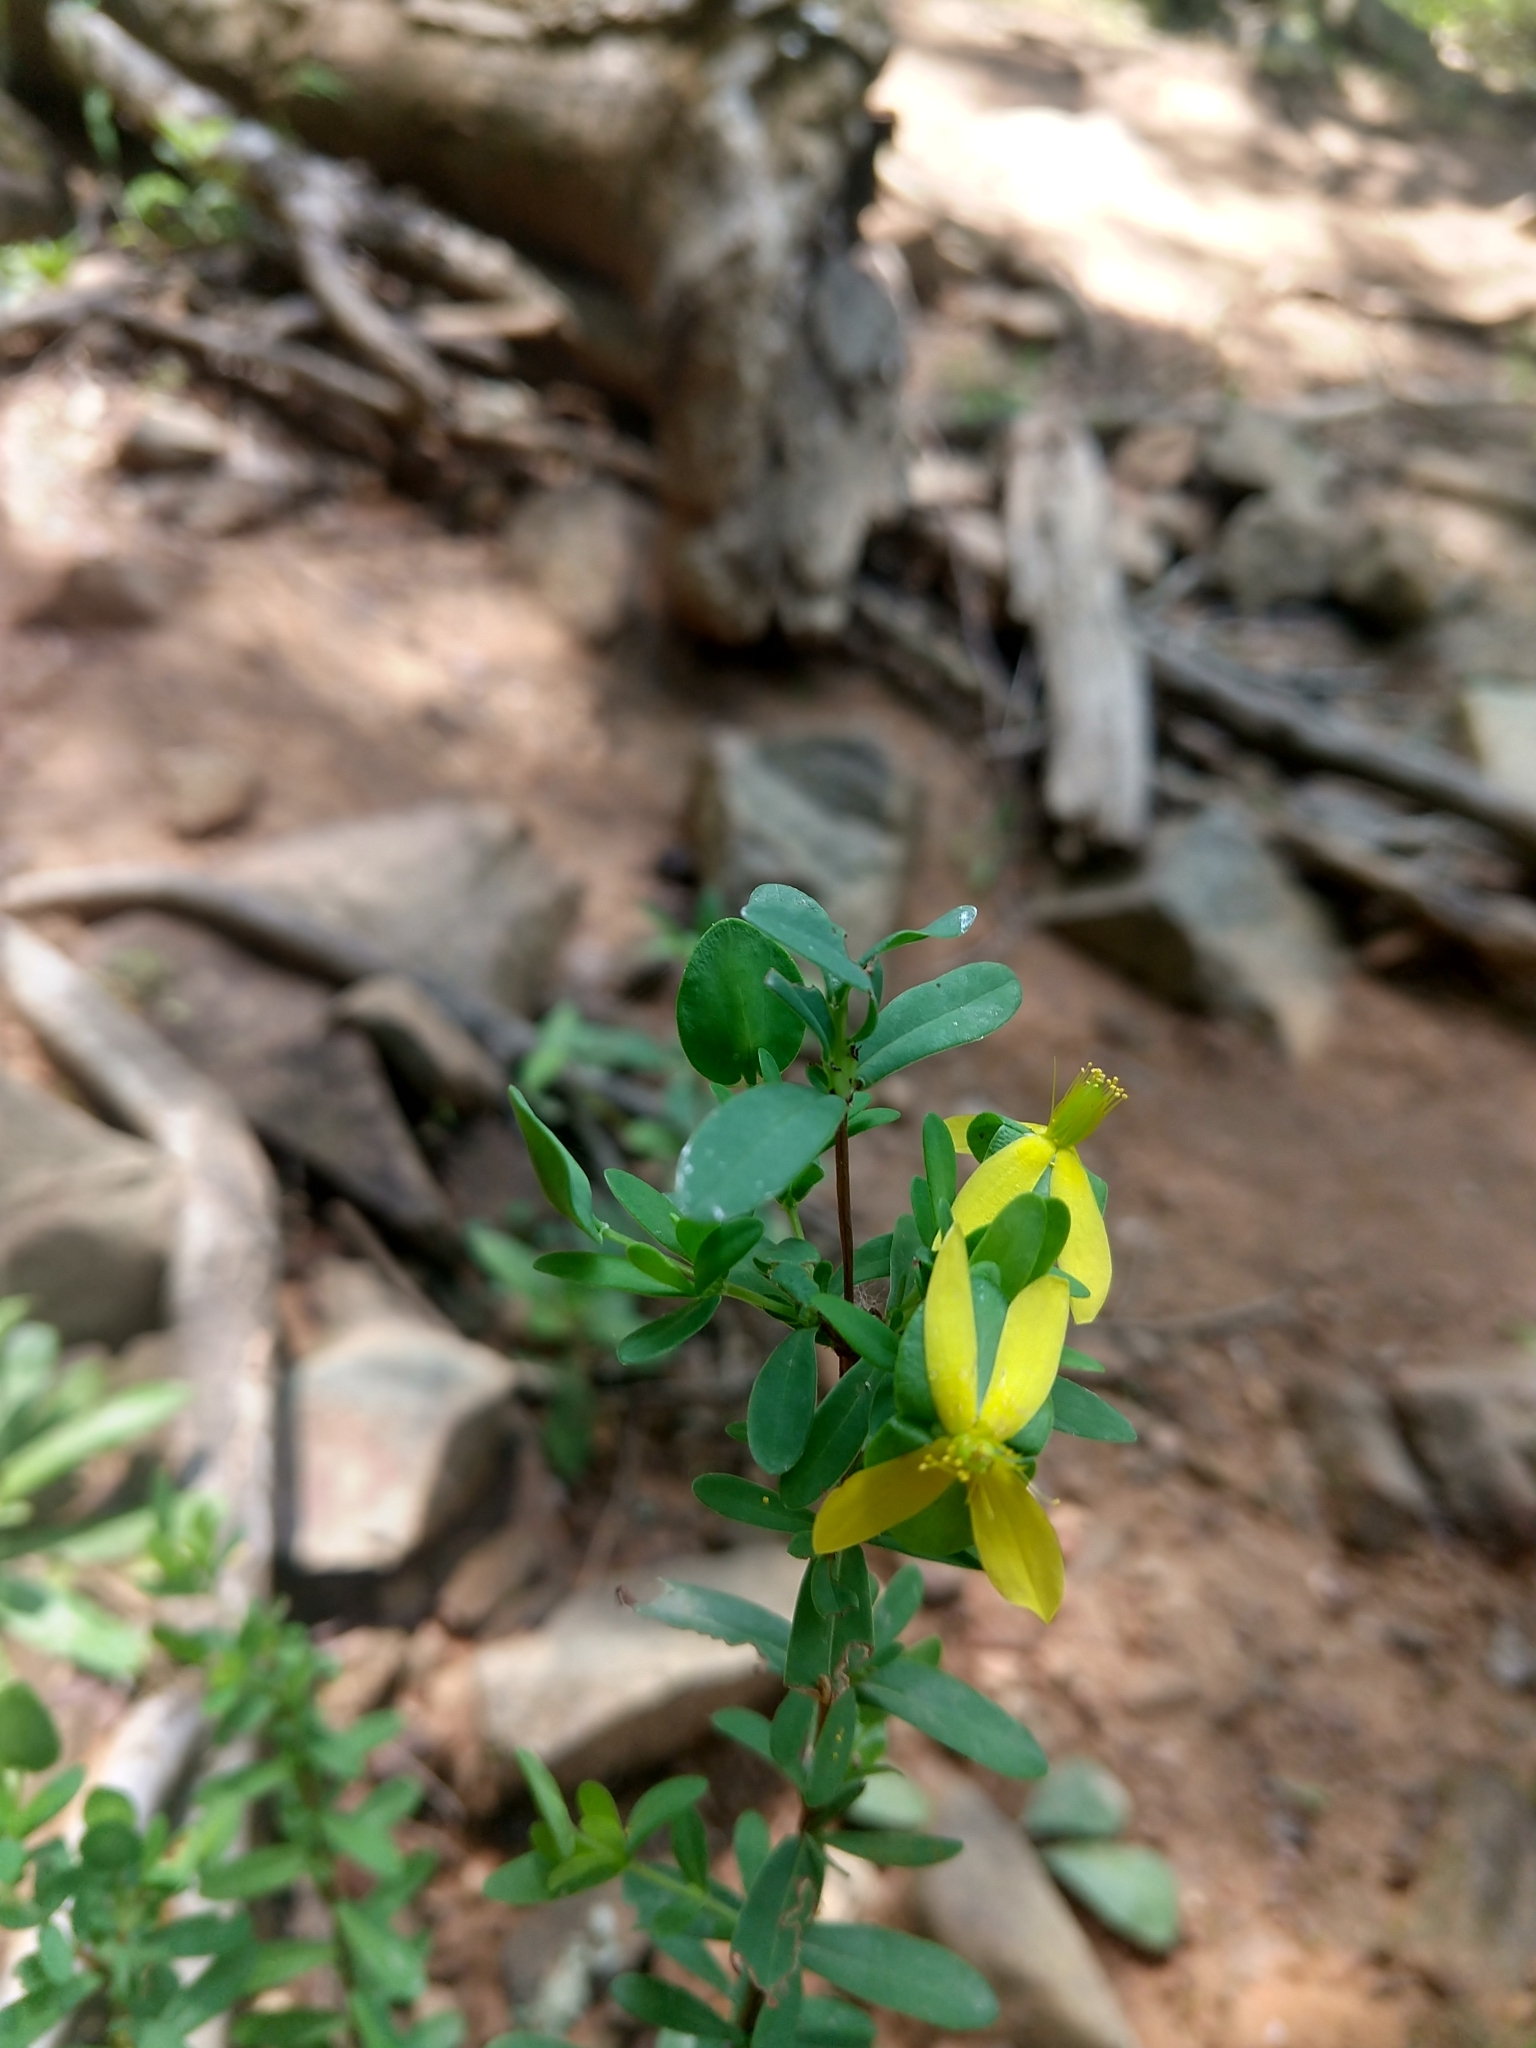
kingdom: Plantae
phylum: Tracheophyta
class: Magnoliopsida
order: Malpighiales
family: Hypericaceae
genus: Hypericum
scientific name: Hypericum hypericoides
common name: St. andrew's cross
